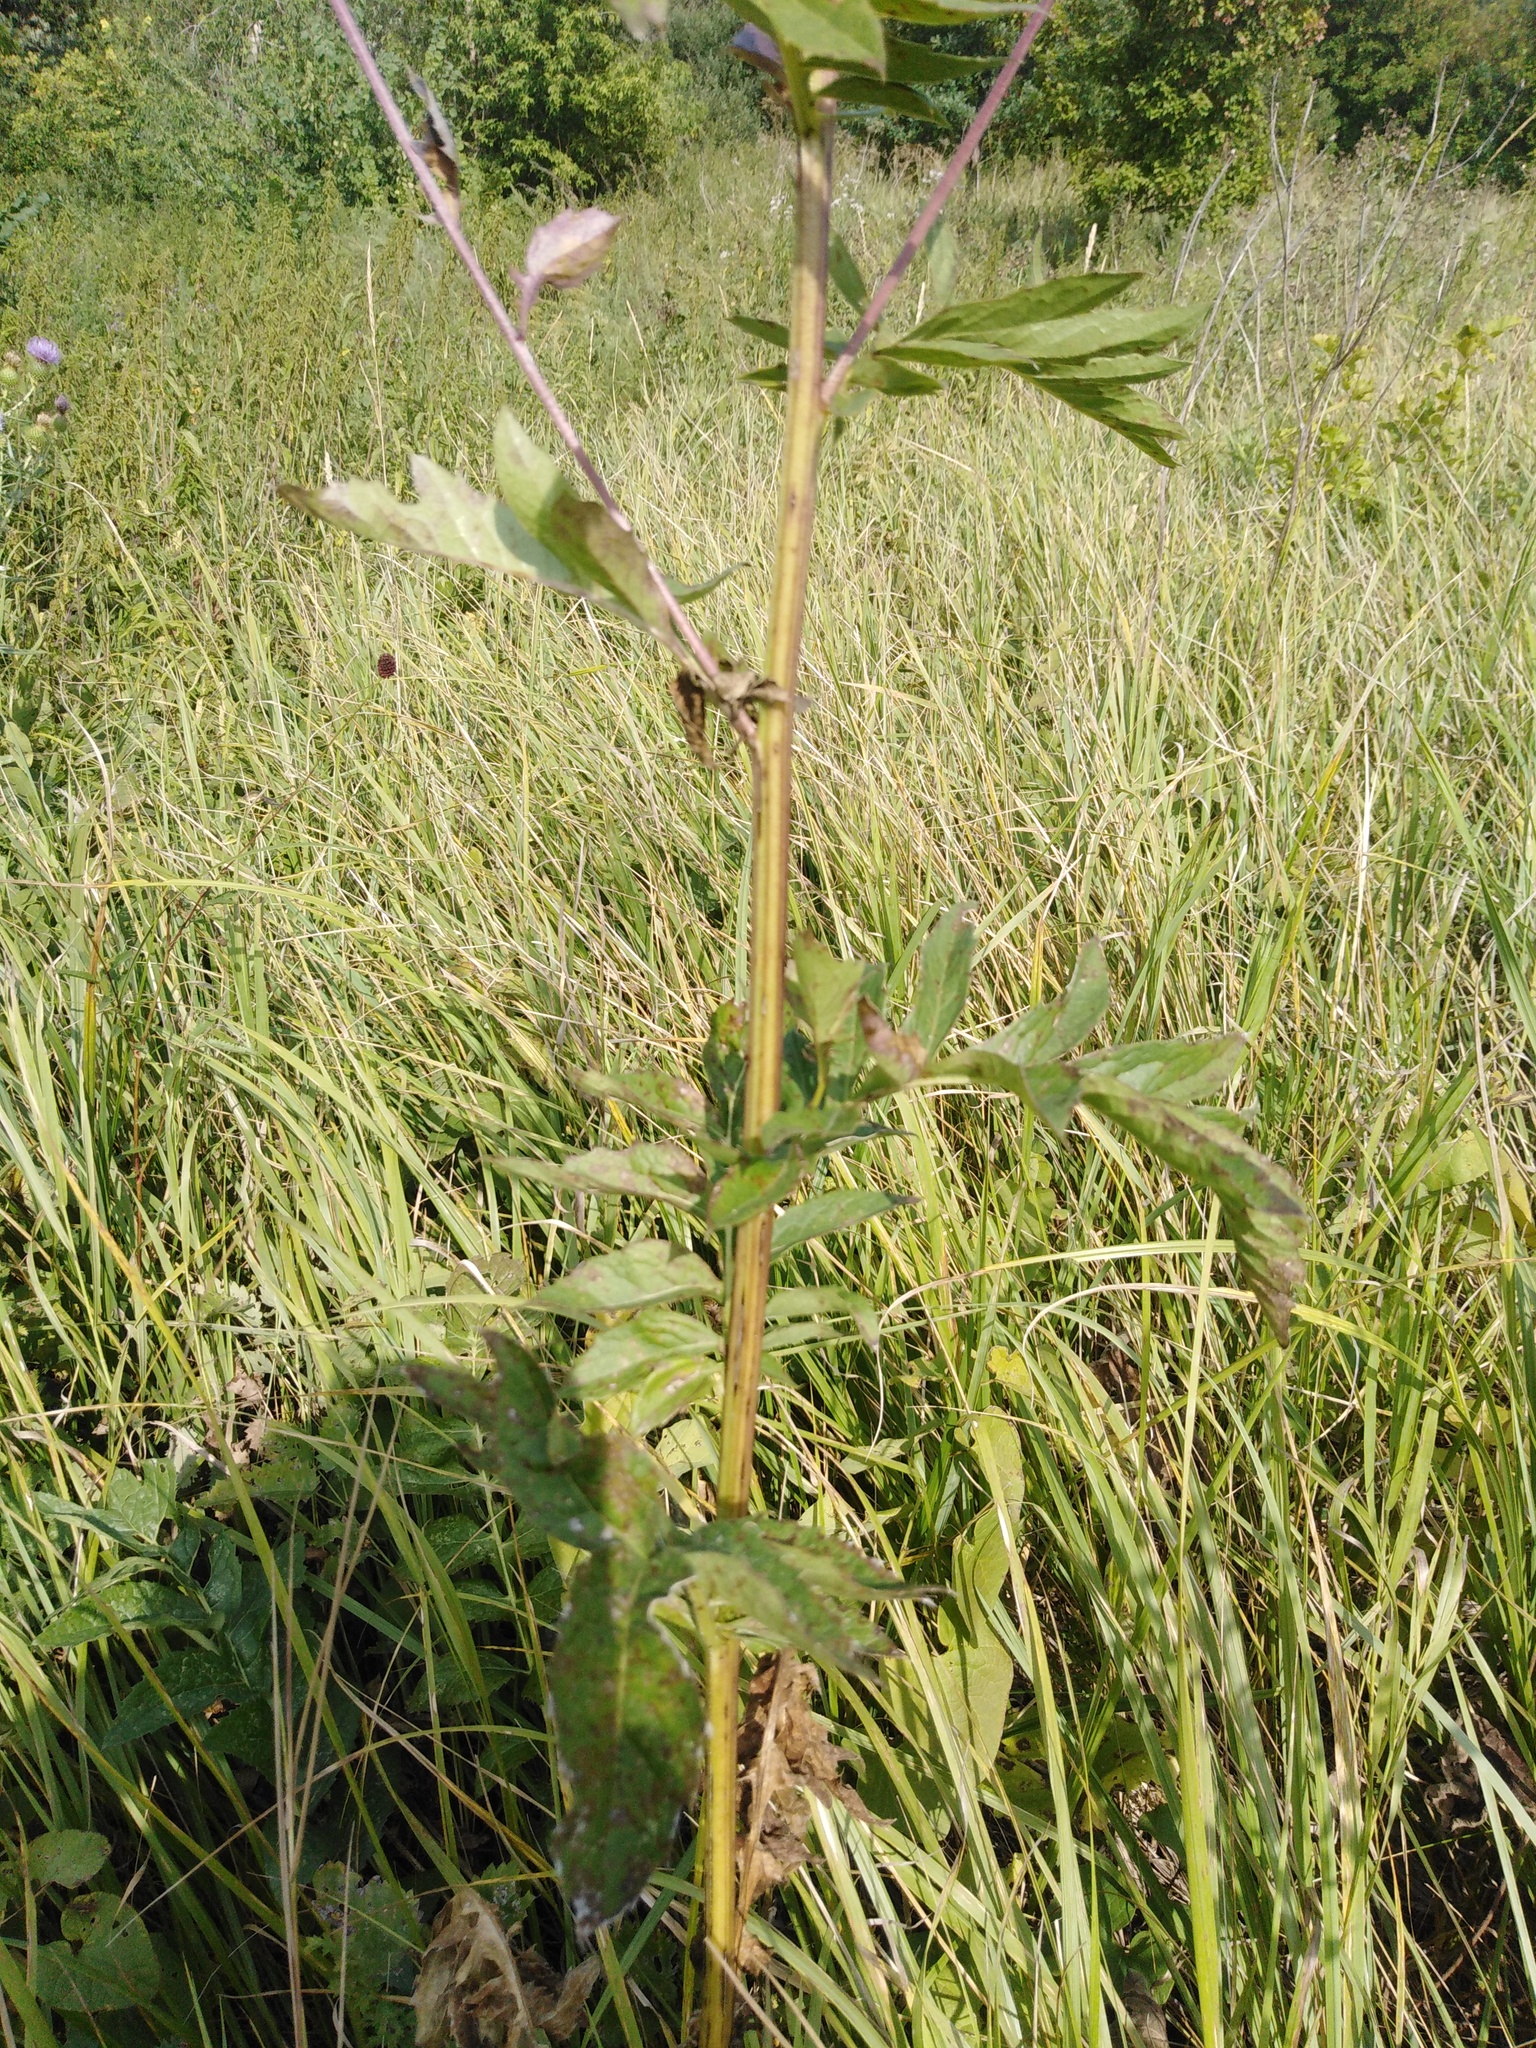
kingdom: Plantae
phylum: Tracheophyta
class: Magnoliopsida
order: Asterales
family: Asteraceae
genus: Serratula
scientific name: Serratula coronata
